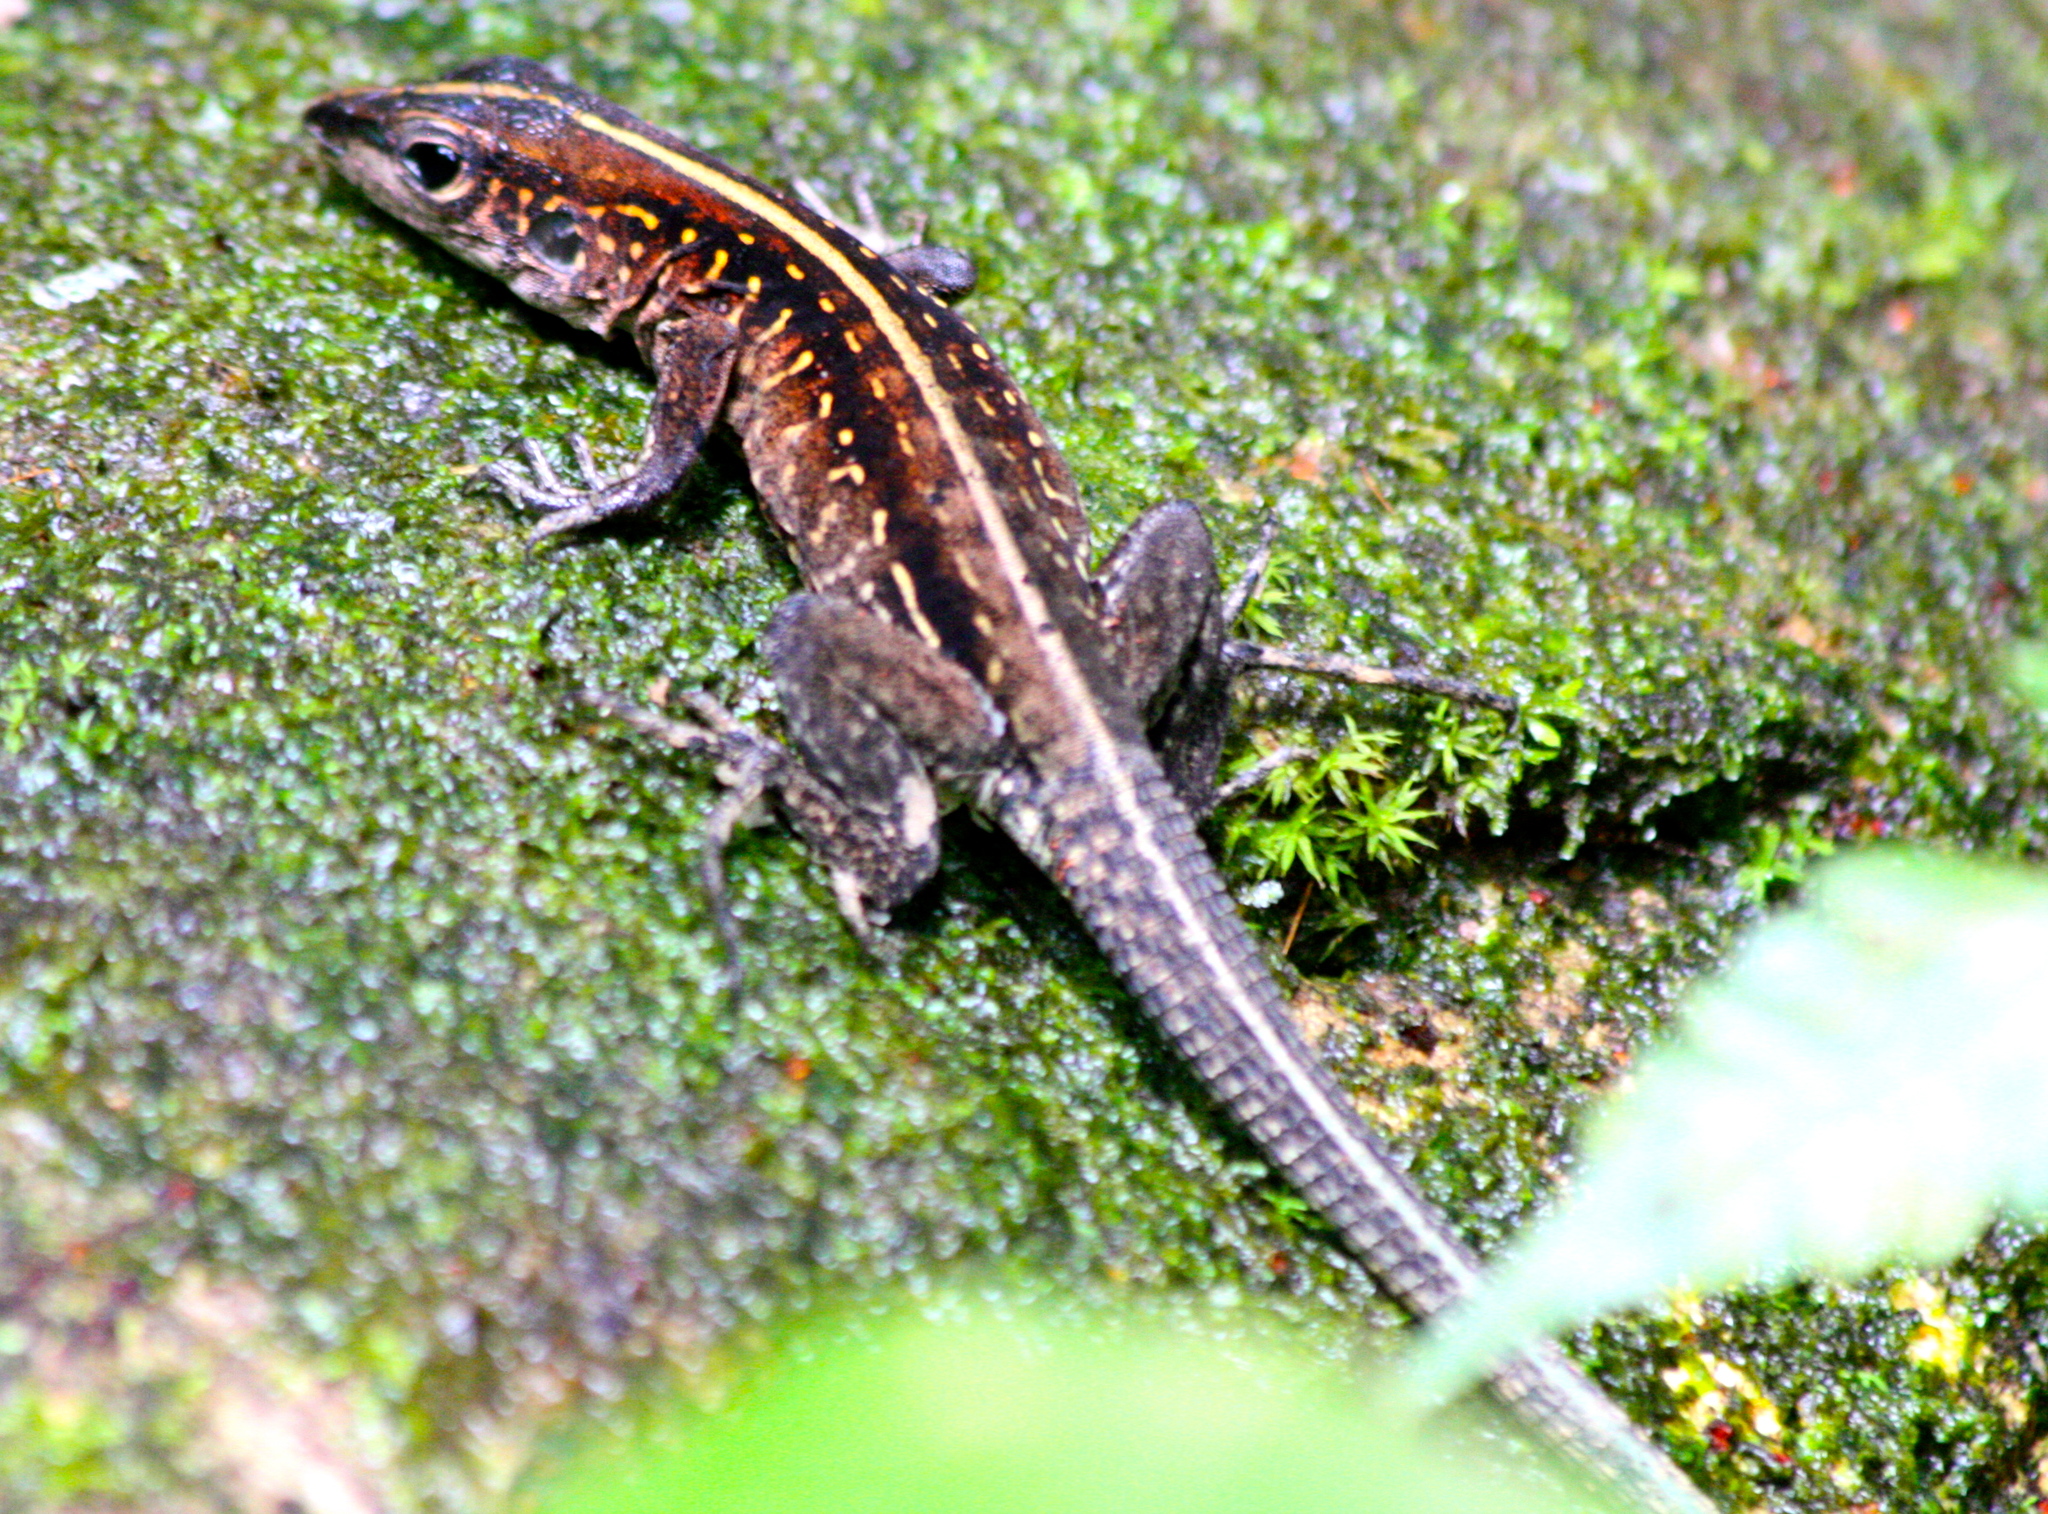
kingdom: Animalia
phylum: Chordata
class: Squamata
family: Teiidae
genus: Holcosus
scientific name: Holcosus festivus
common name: Middle american ameiva
